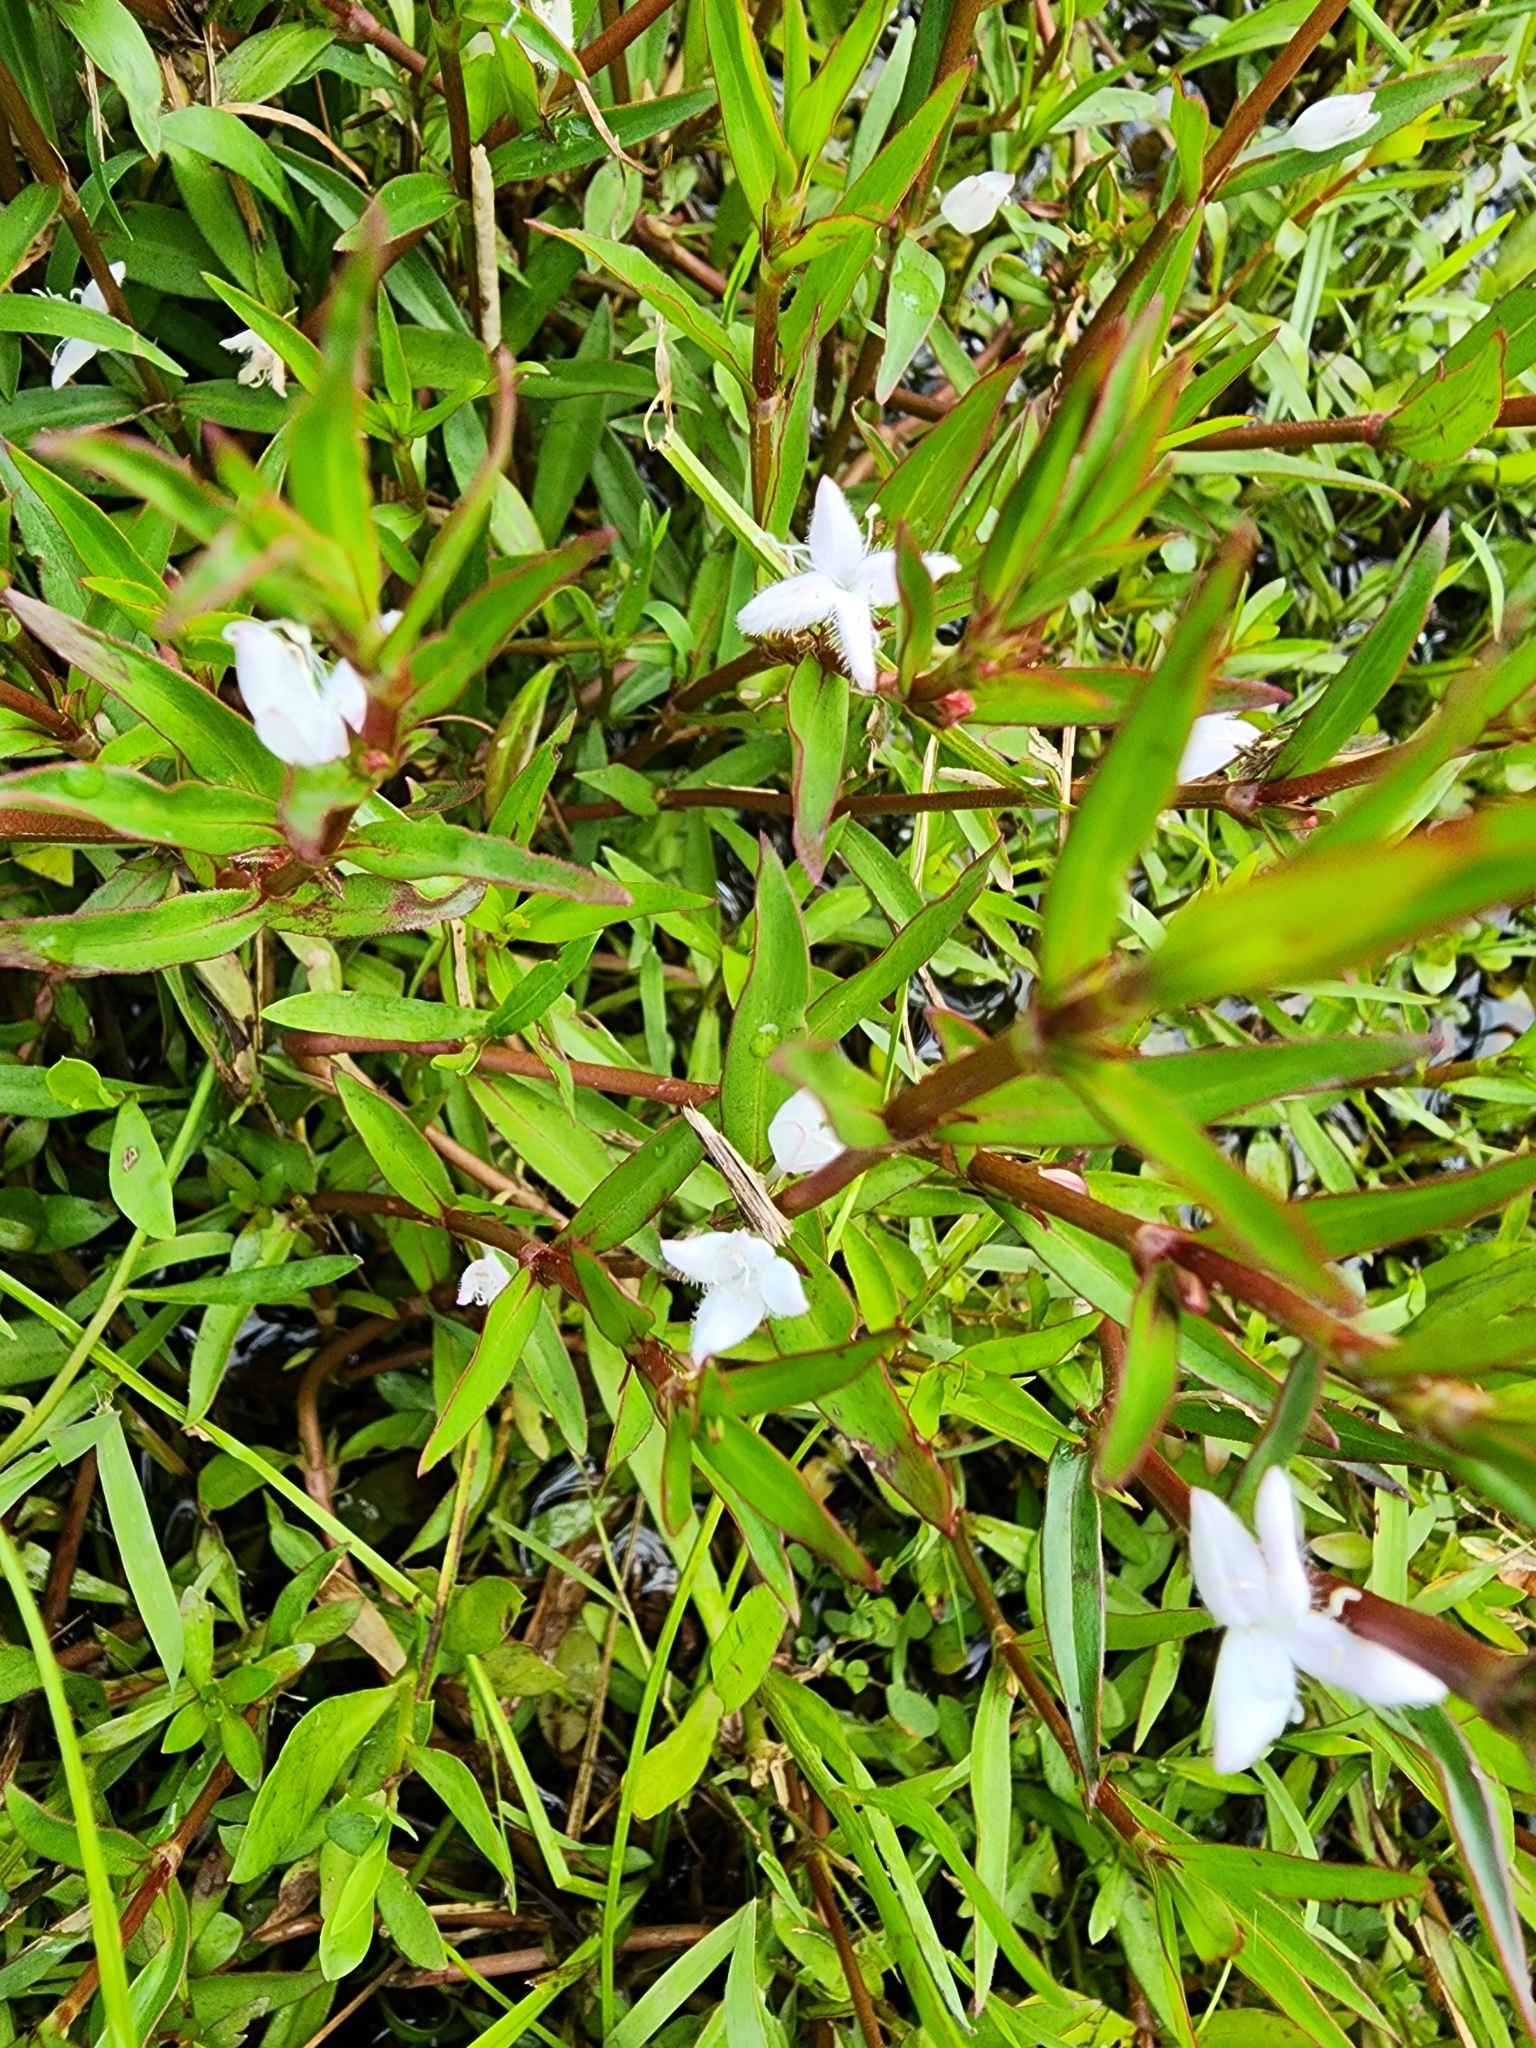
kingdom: Plantae
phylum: Tracheophyta
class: Magnoliopsida
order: Gentianales
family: Rubiaceae
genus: Diodia
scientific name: Diodia virginiana
